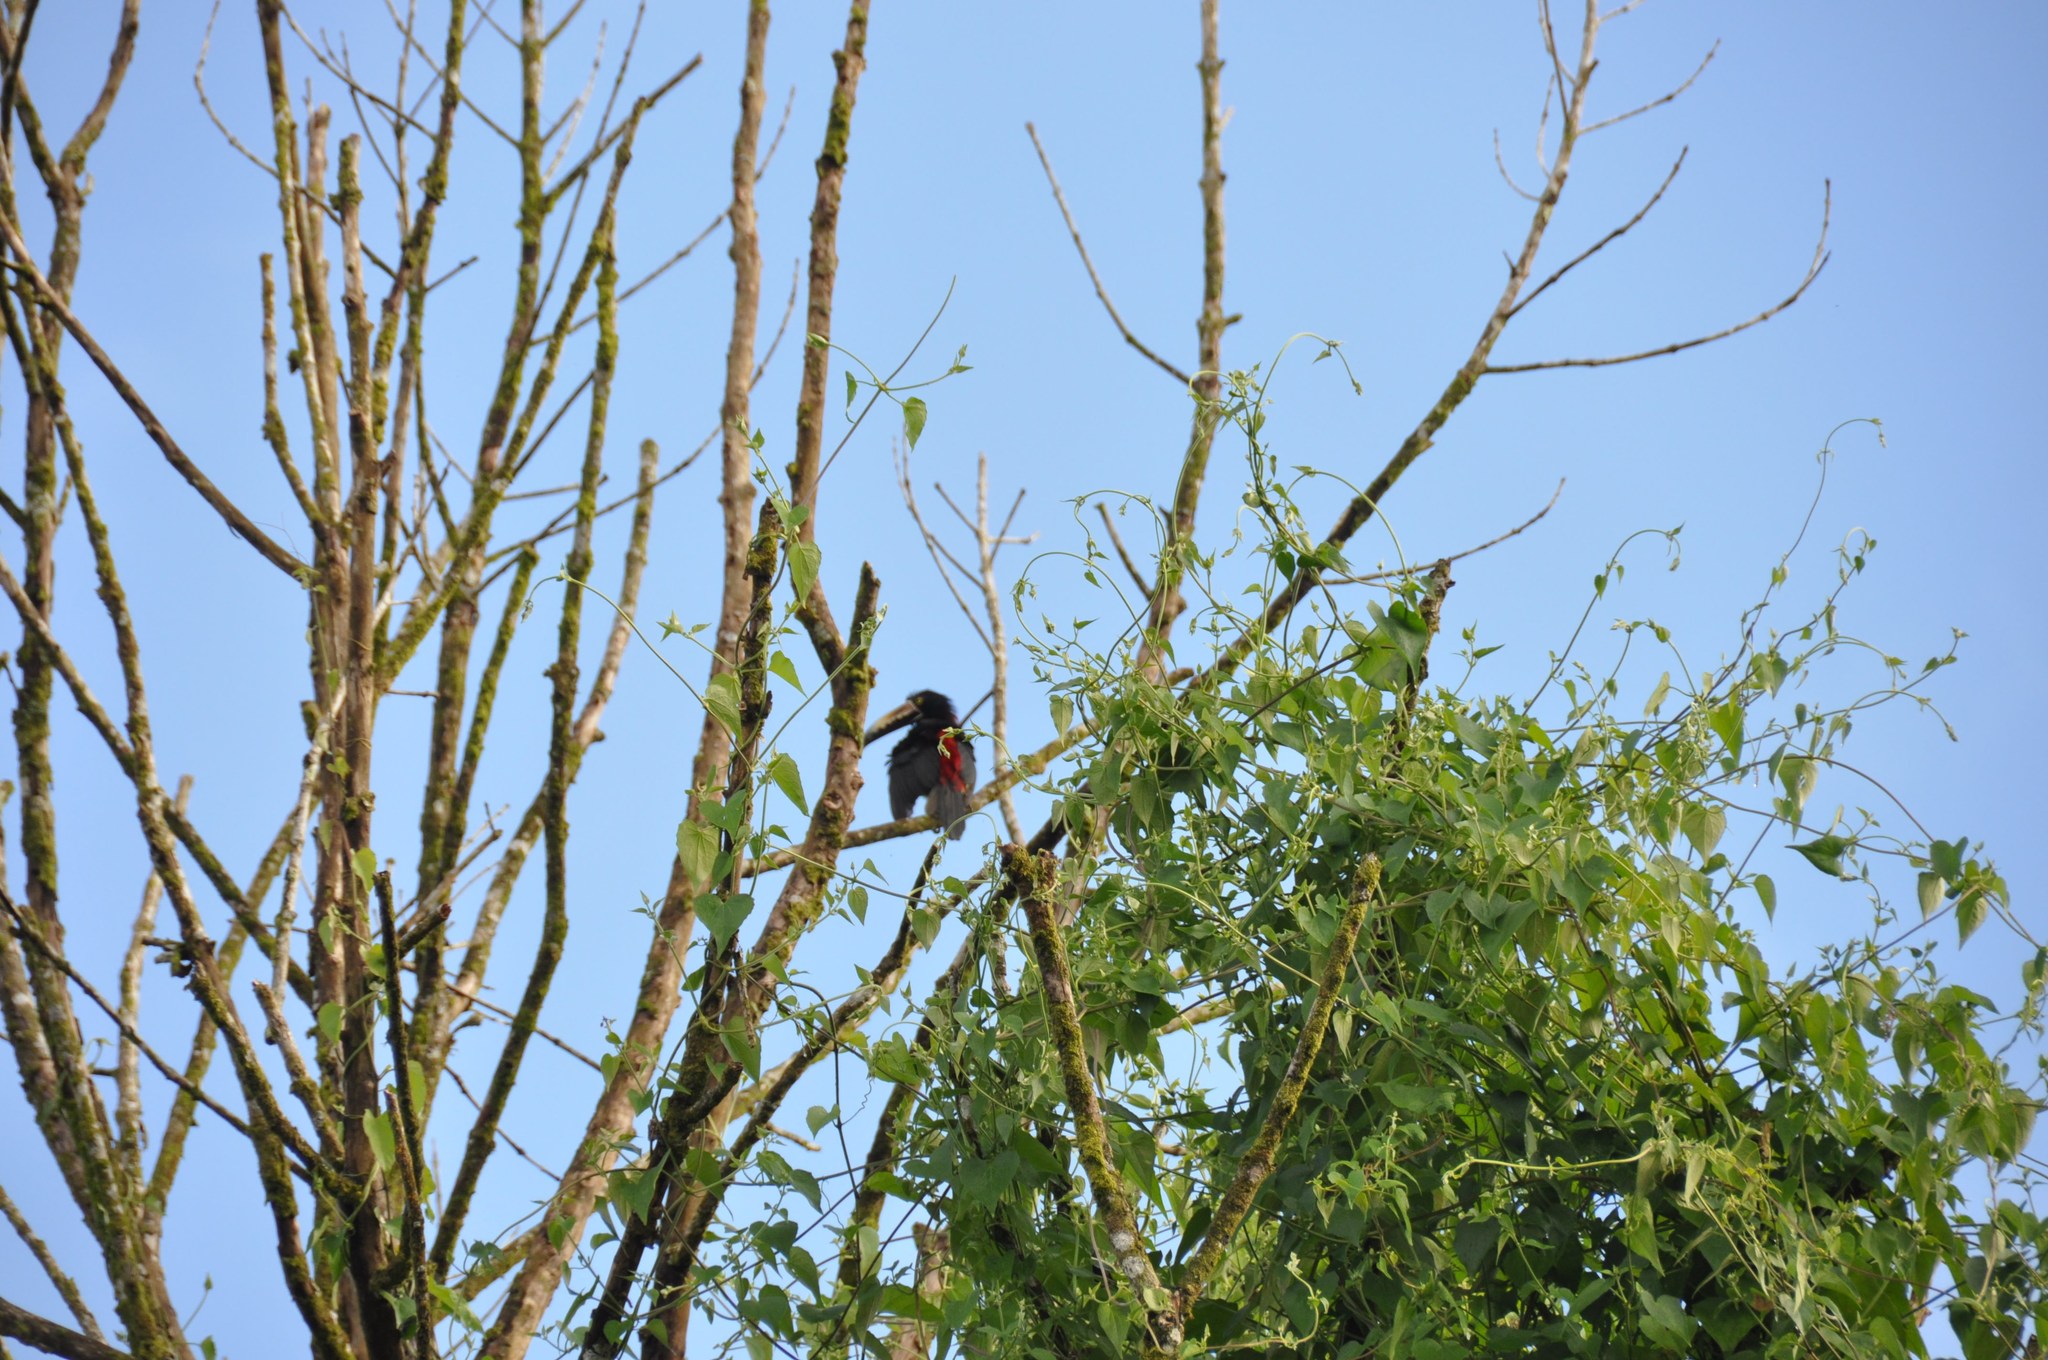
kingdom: Animalia
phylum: Chordata
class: Aves
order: Piciformes
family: Ramphastidae
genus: Pteroglossus
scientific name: Pteroglossus torquatus
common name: Collared aracari
